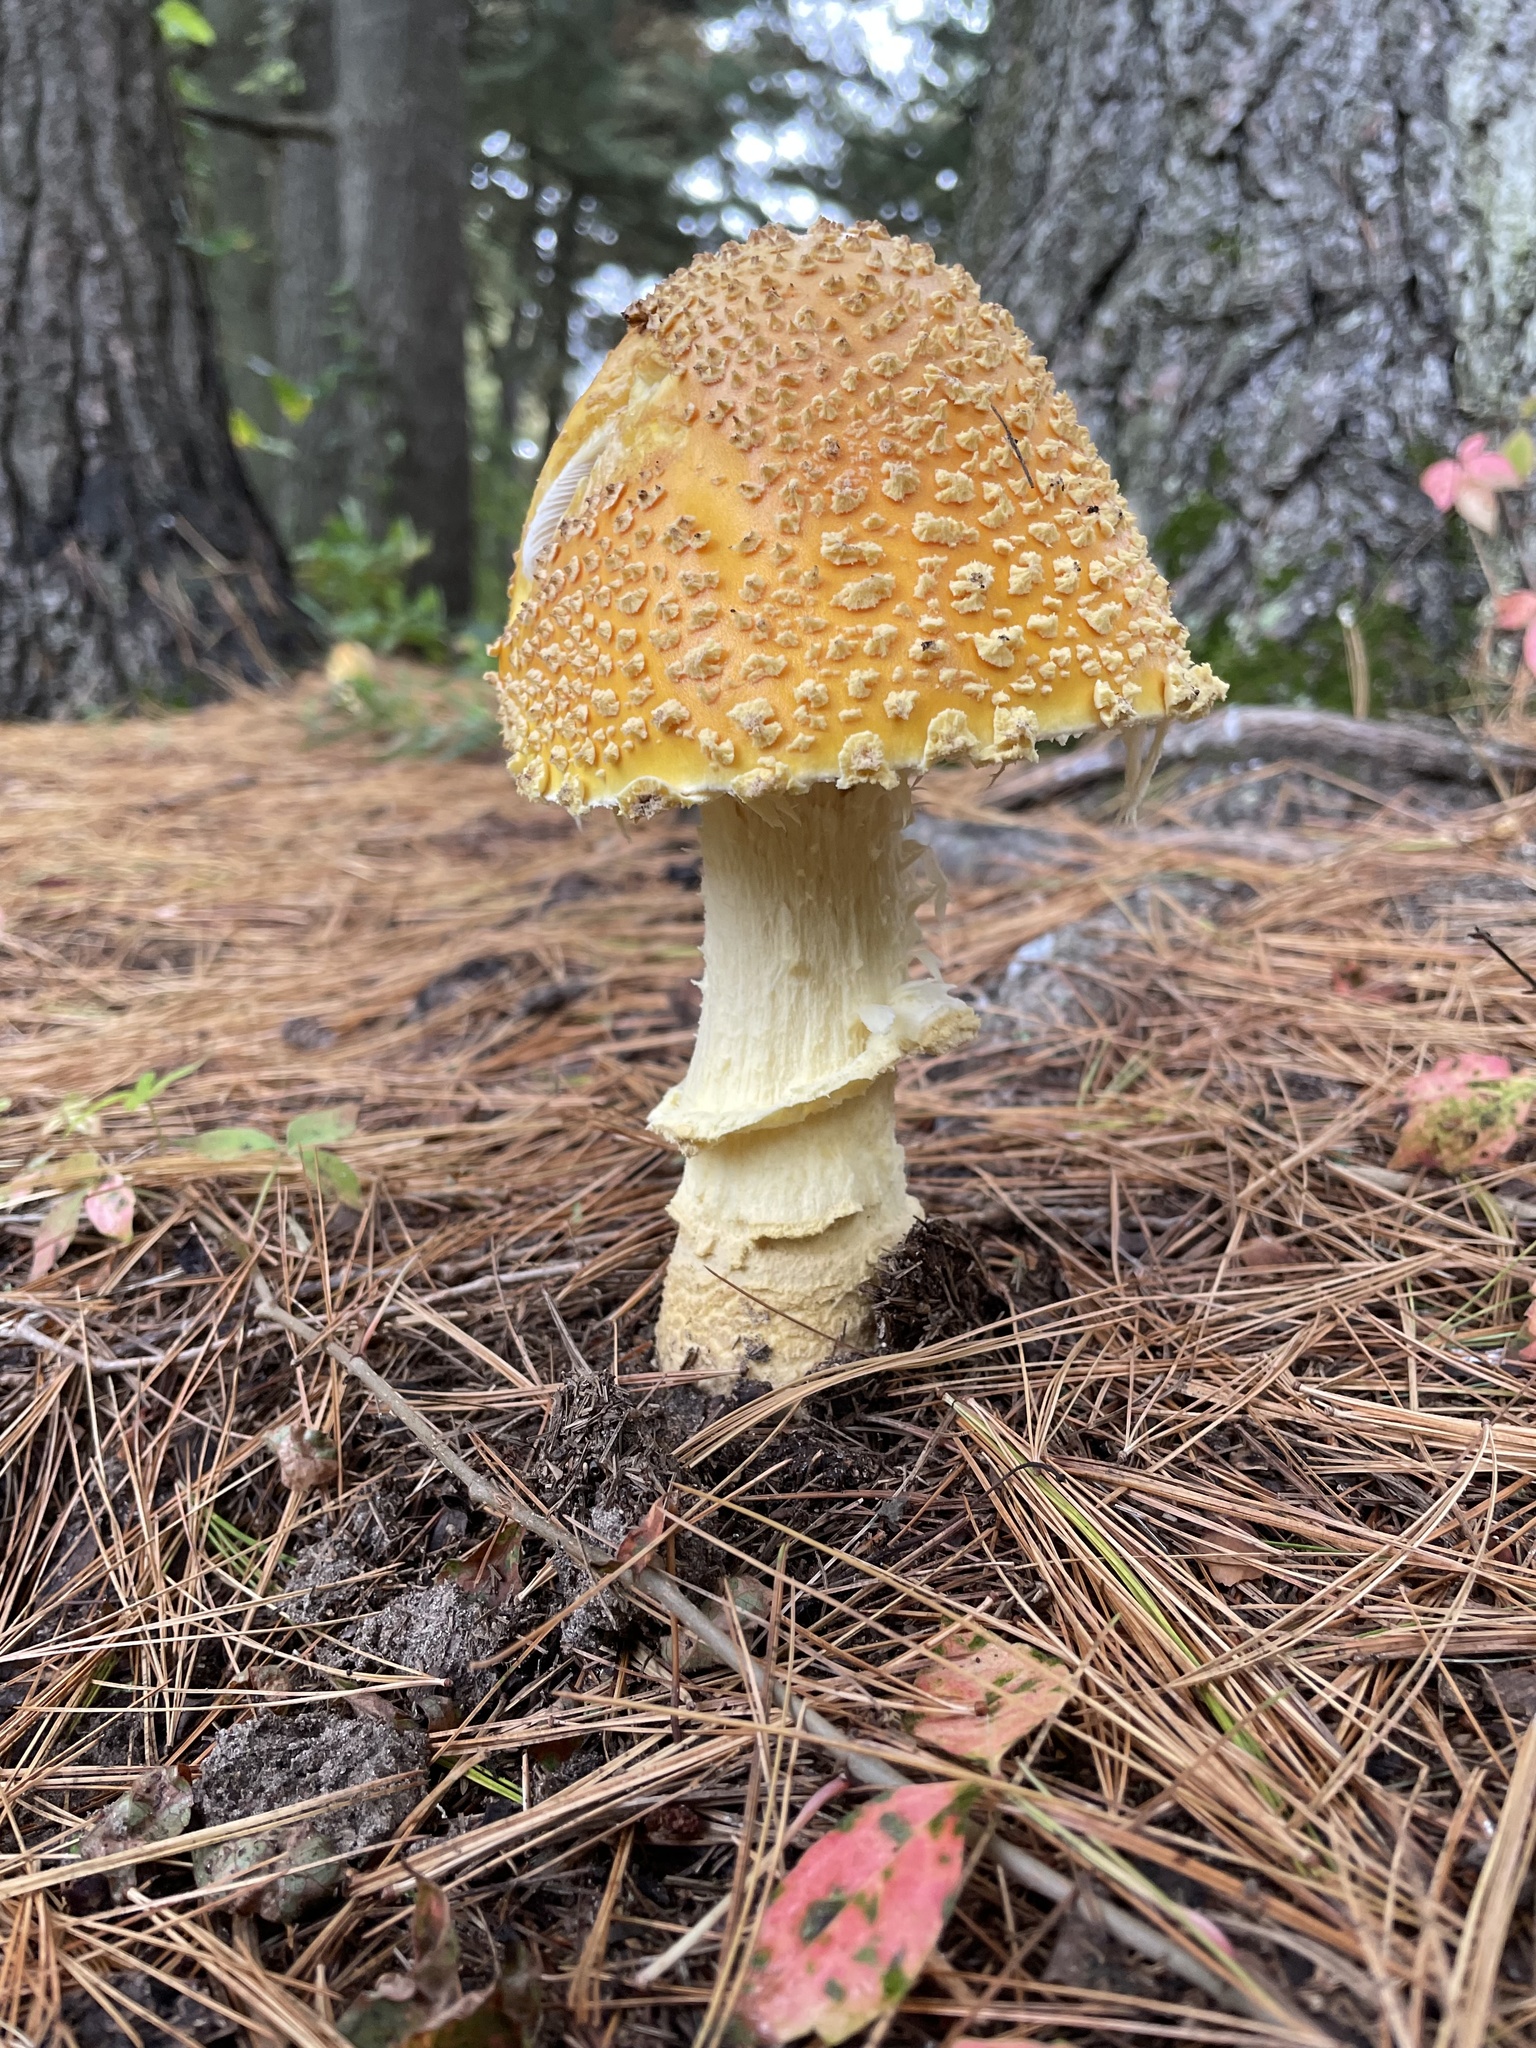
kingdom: Fungi
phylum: Basidiomycota
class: Agaricomycetes
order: Agaricales
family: Amanitaceae
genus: Amanita
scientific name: Amanita muscaria
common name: Fly agaric
